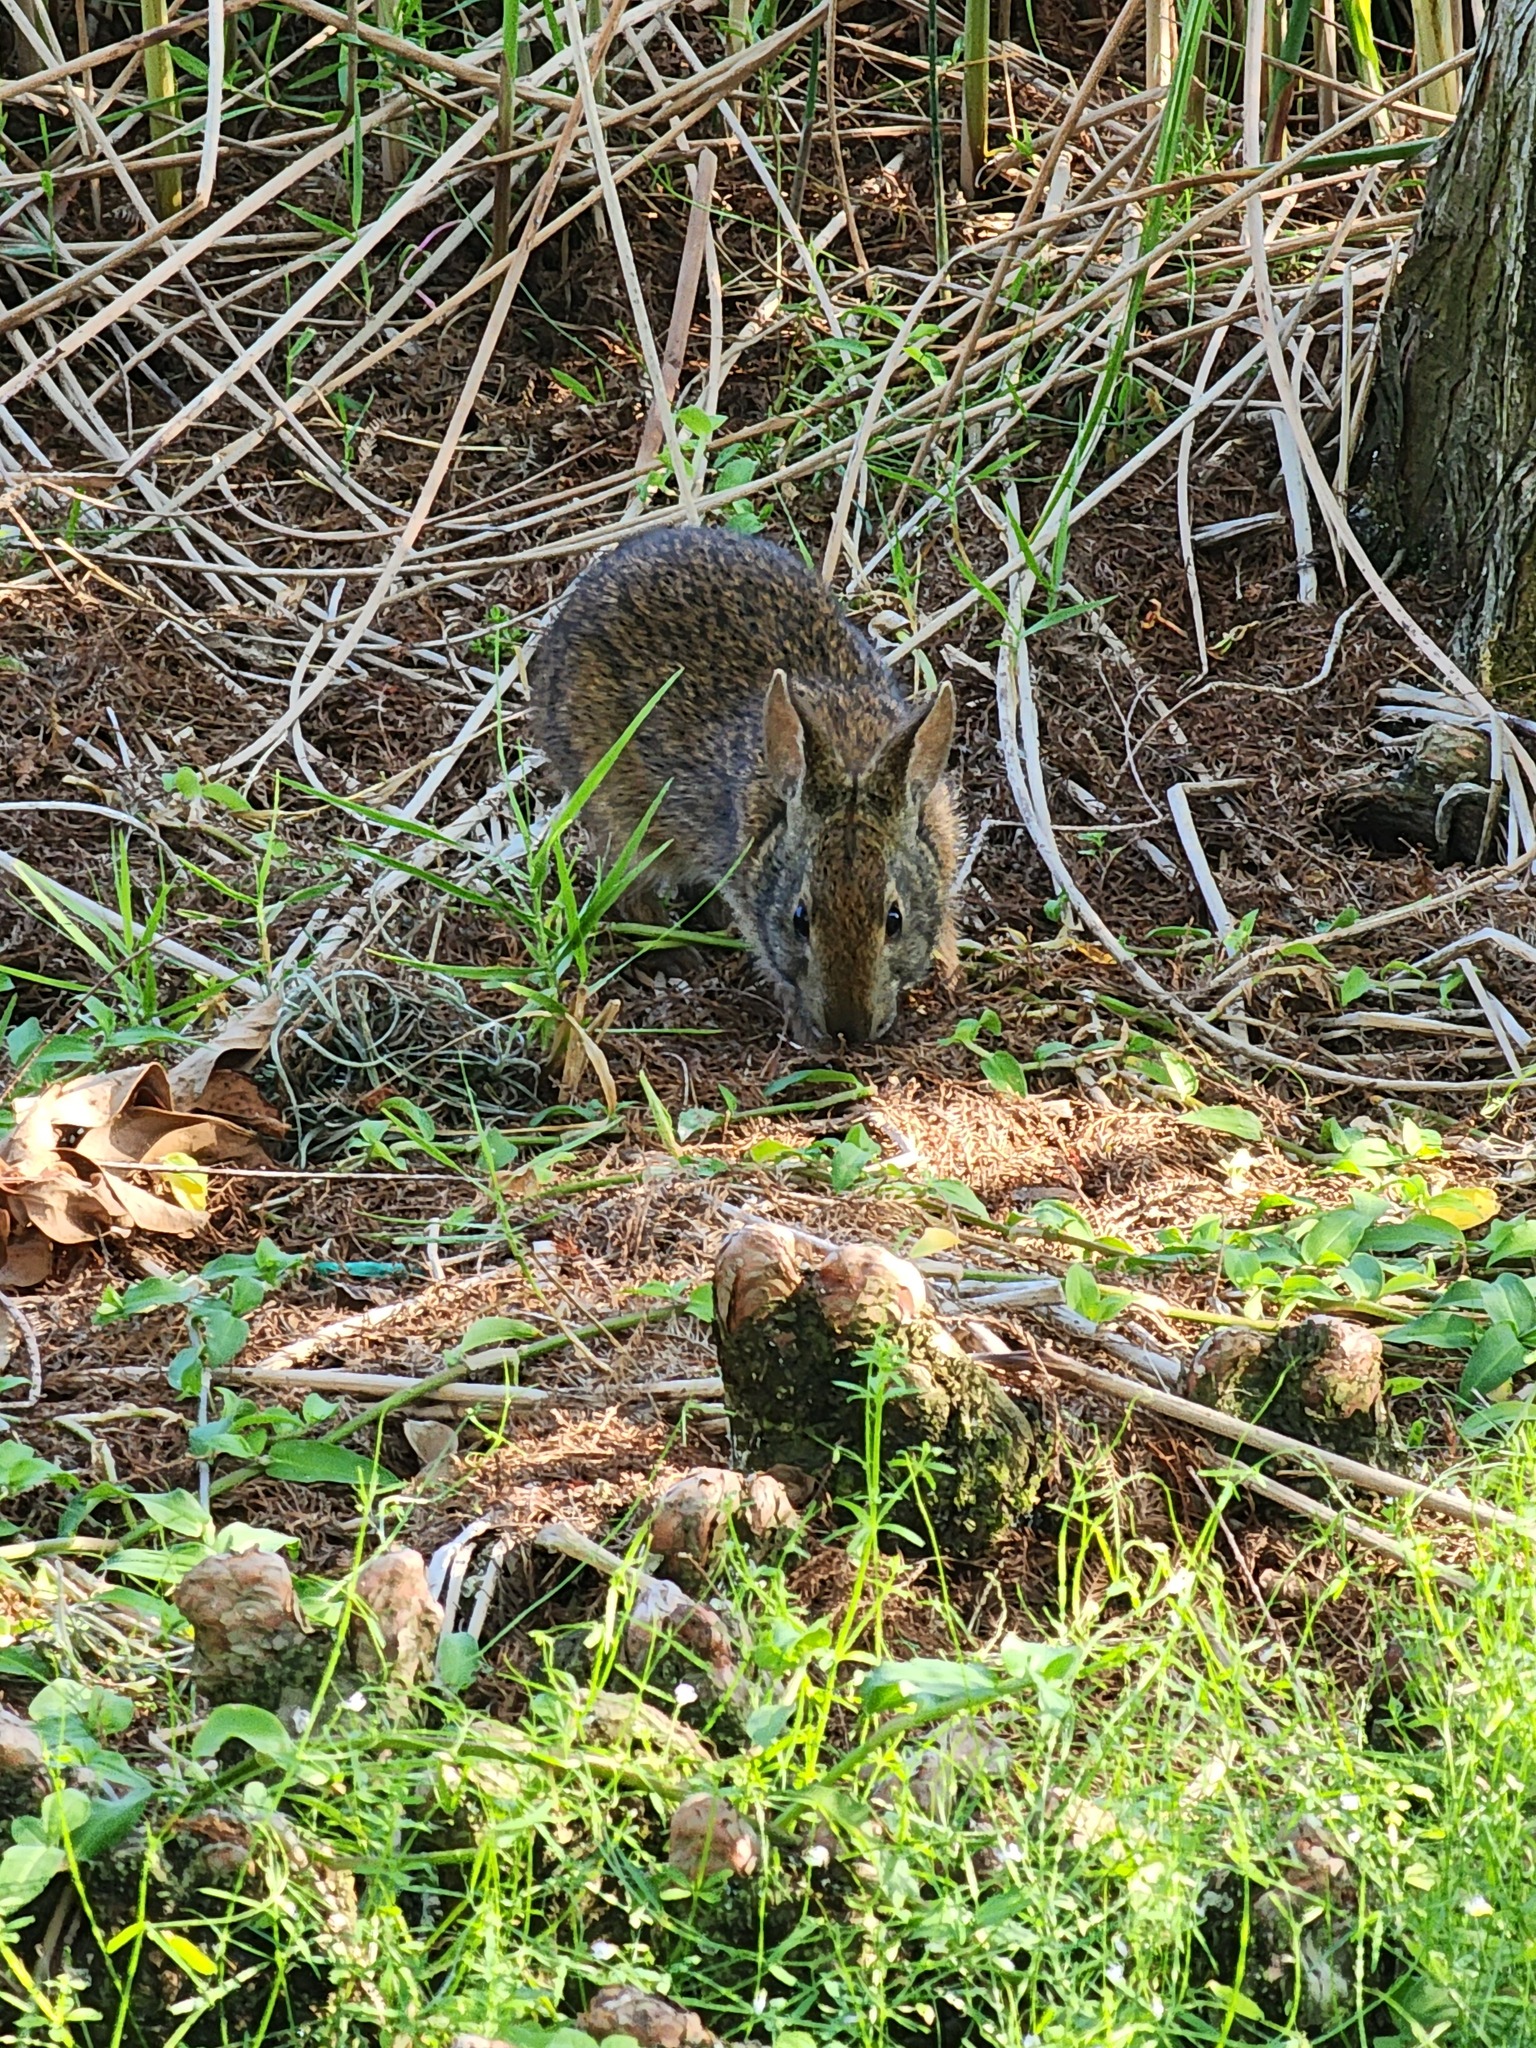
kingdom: Animalia
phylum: Chordata
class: Mammalia
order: Lagomorpha
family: Leporidae
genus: Sylvilagus
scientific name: Sylvilagus palustris
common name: Marsh rabbit
